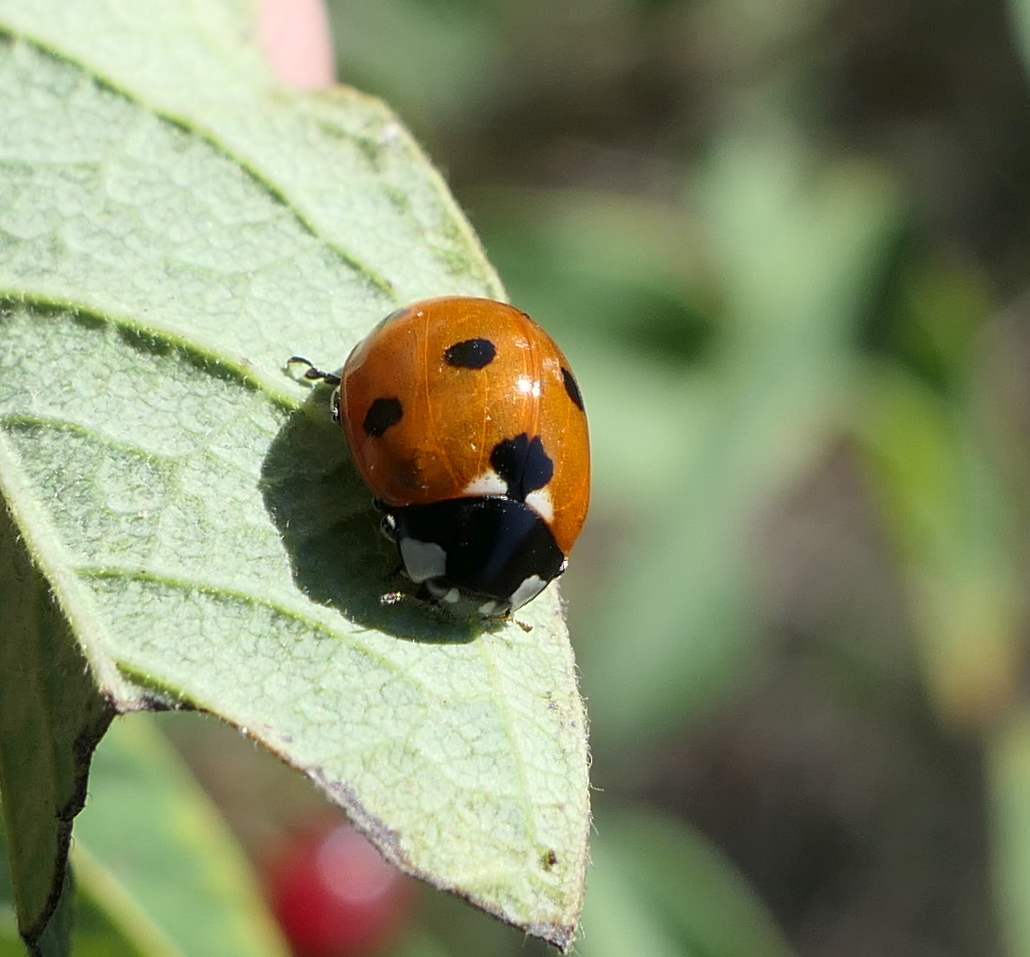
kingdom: Animalia
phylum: Arthropoda
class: Insecta
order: Coleoptera
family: Coccinellidae
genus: Coccinella
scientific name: Coccinella septempunctata
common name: Sevenspotted lady beetle
